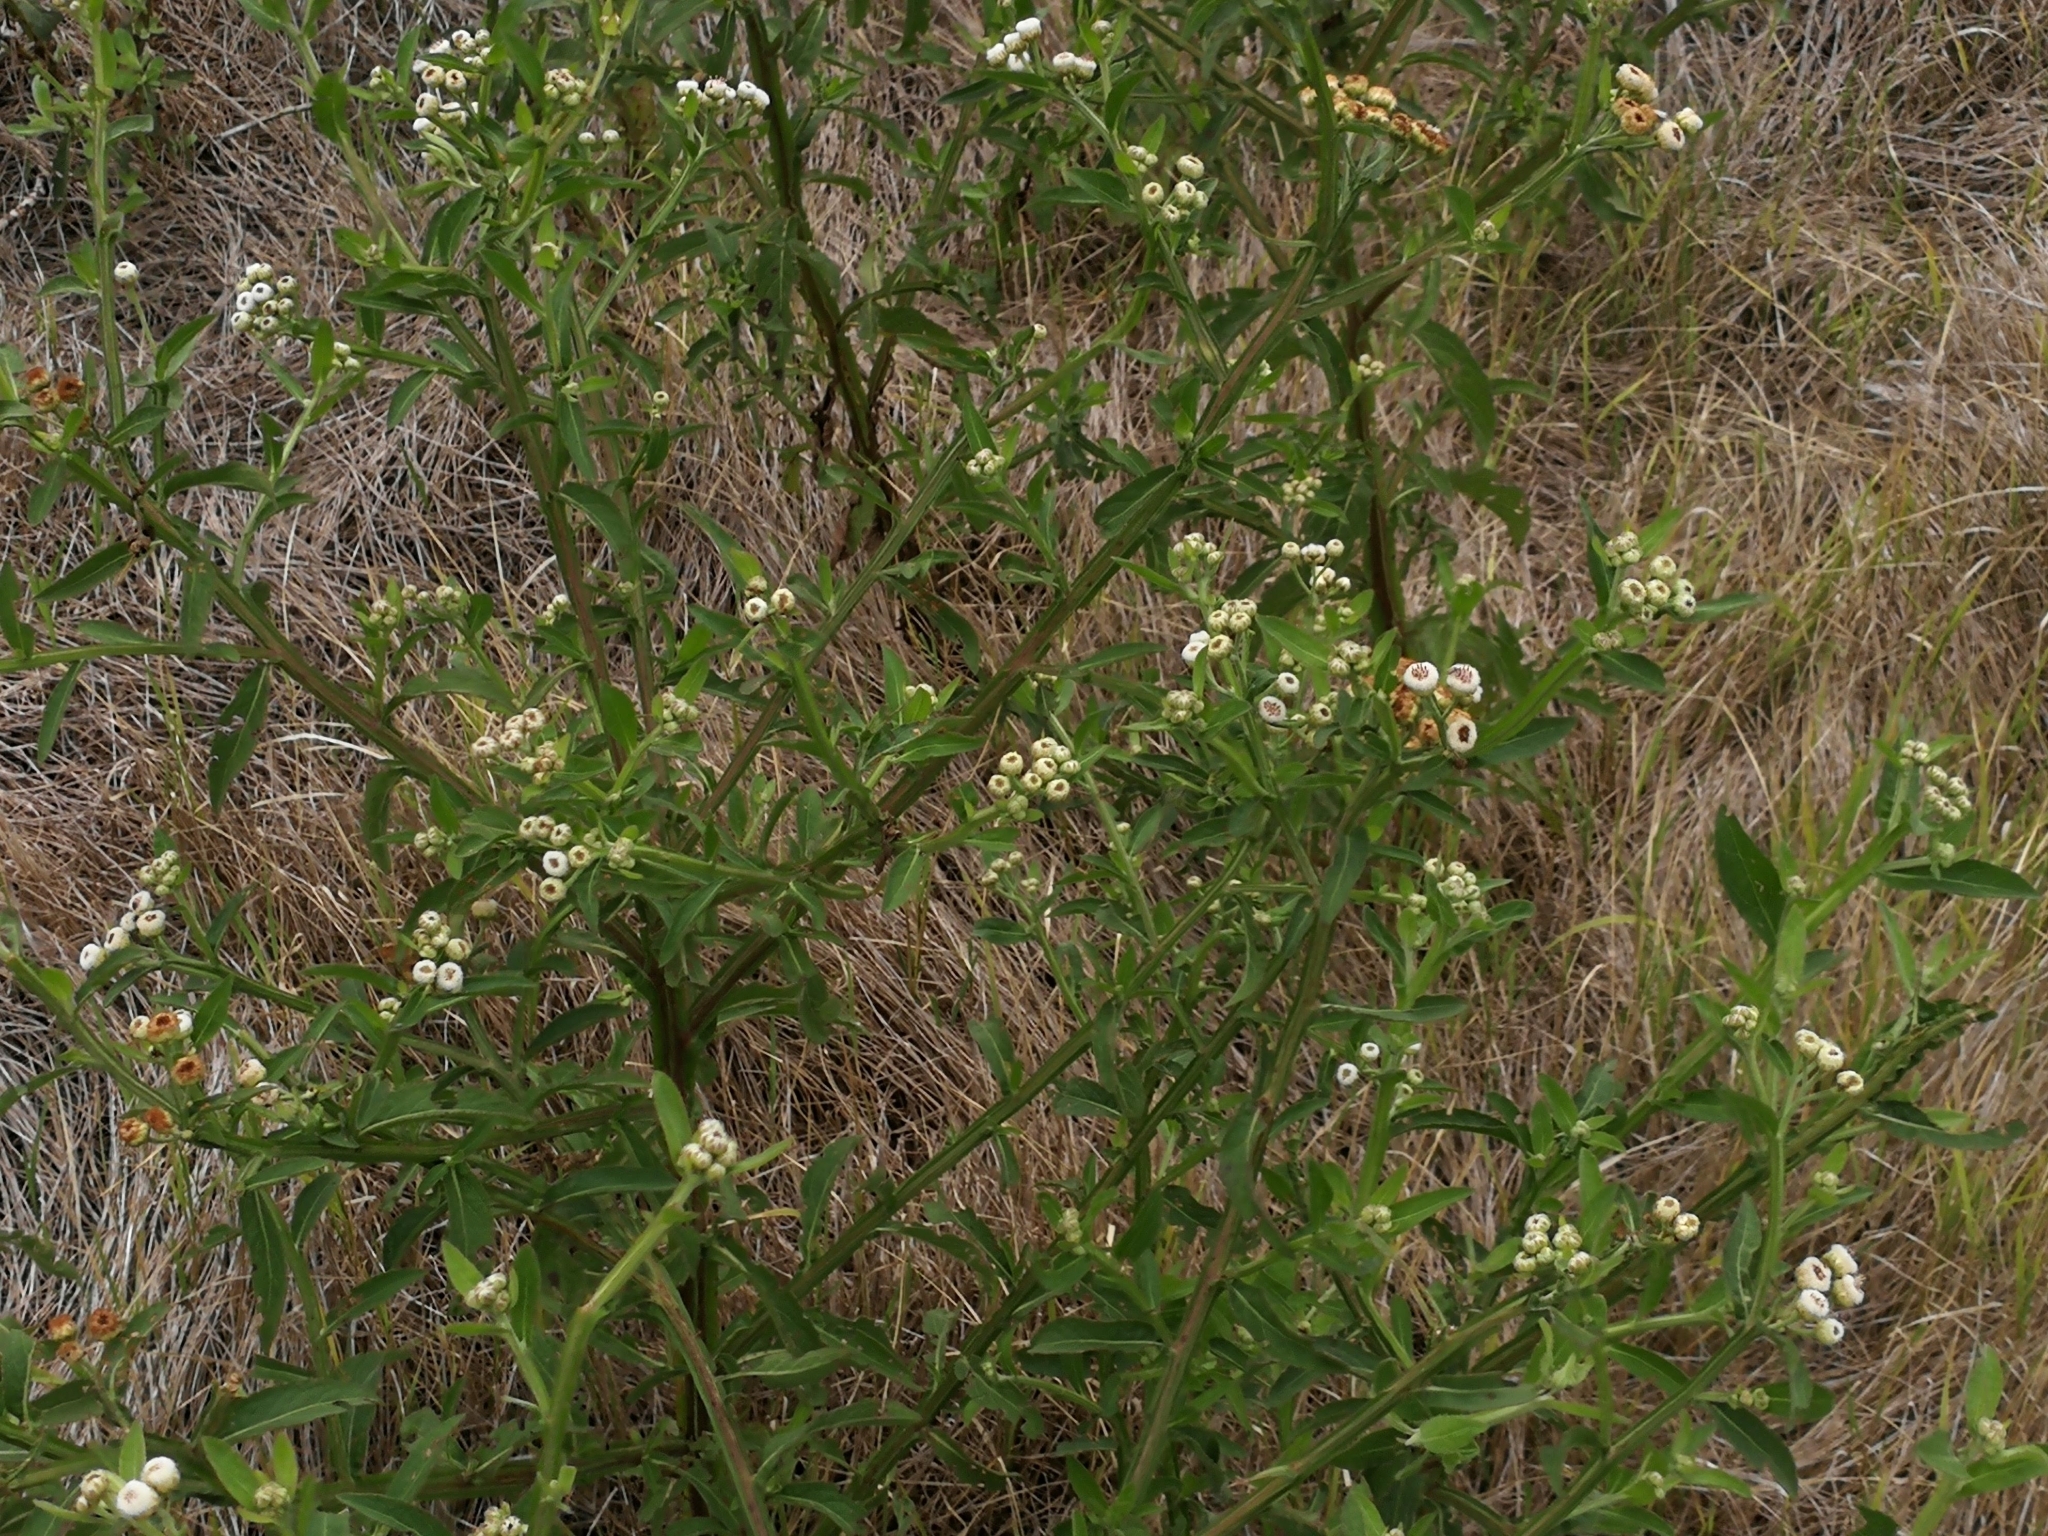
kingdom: Plantae
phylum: Tracheophyta
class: Magnoliopsida
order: Asterales
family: Asteraceae
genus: Pluchea
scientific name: Pluchea sagittalis
